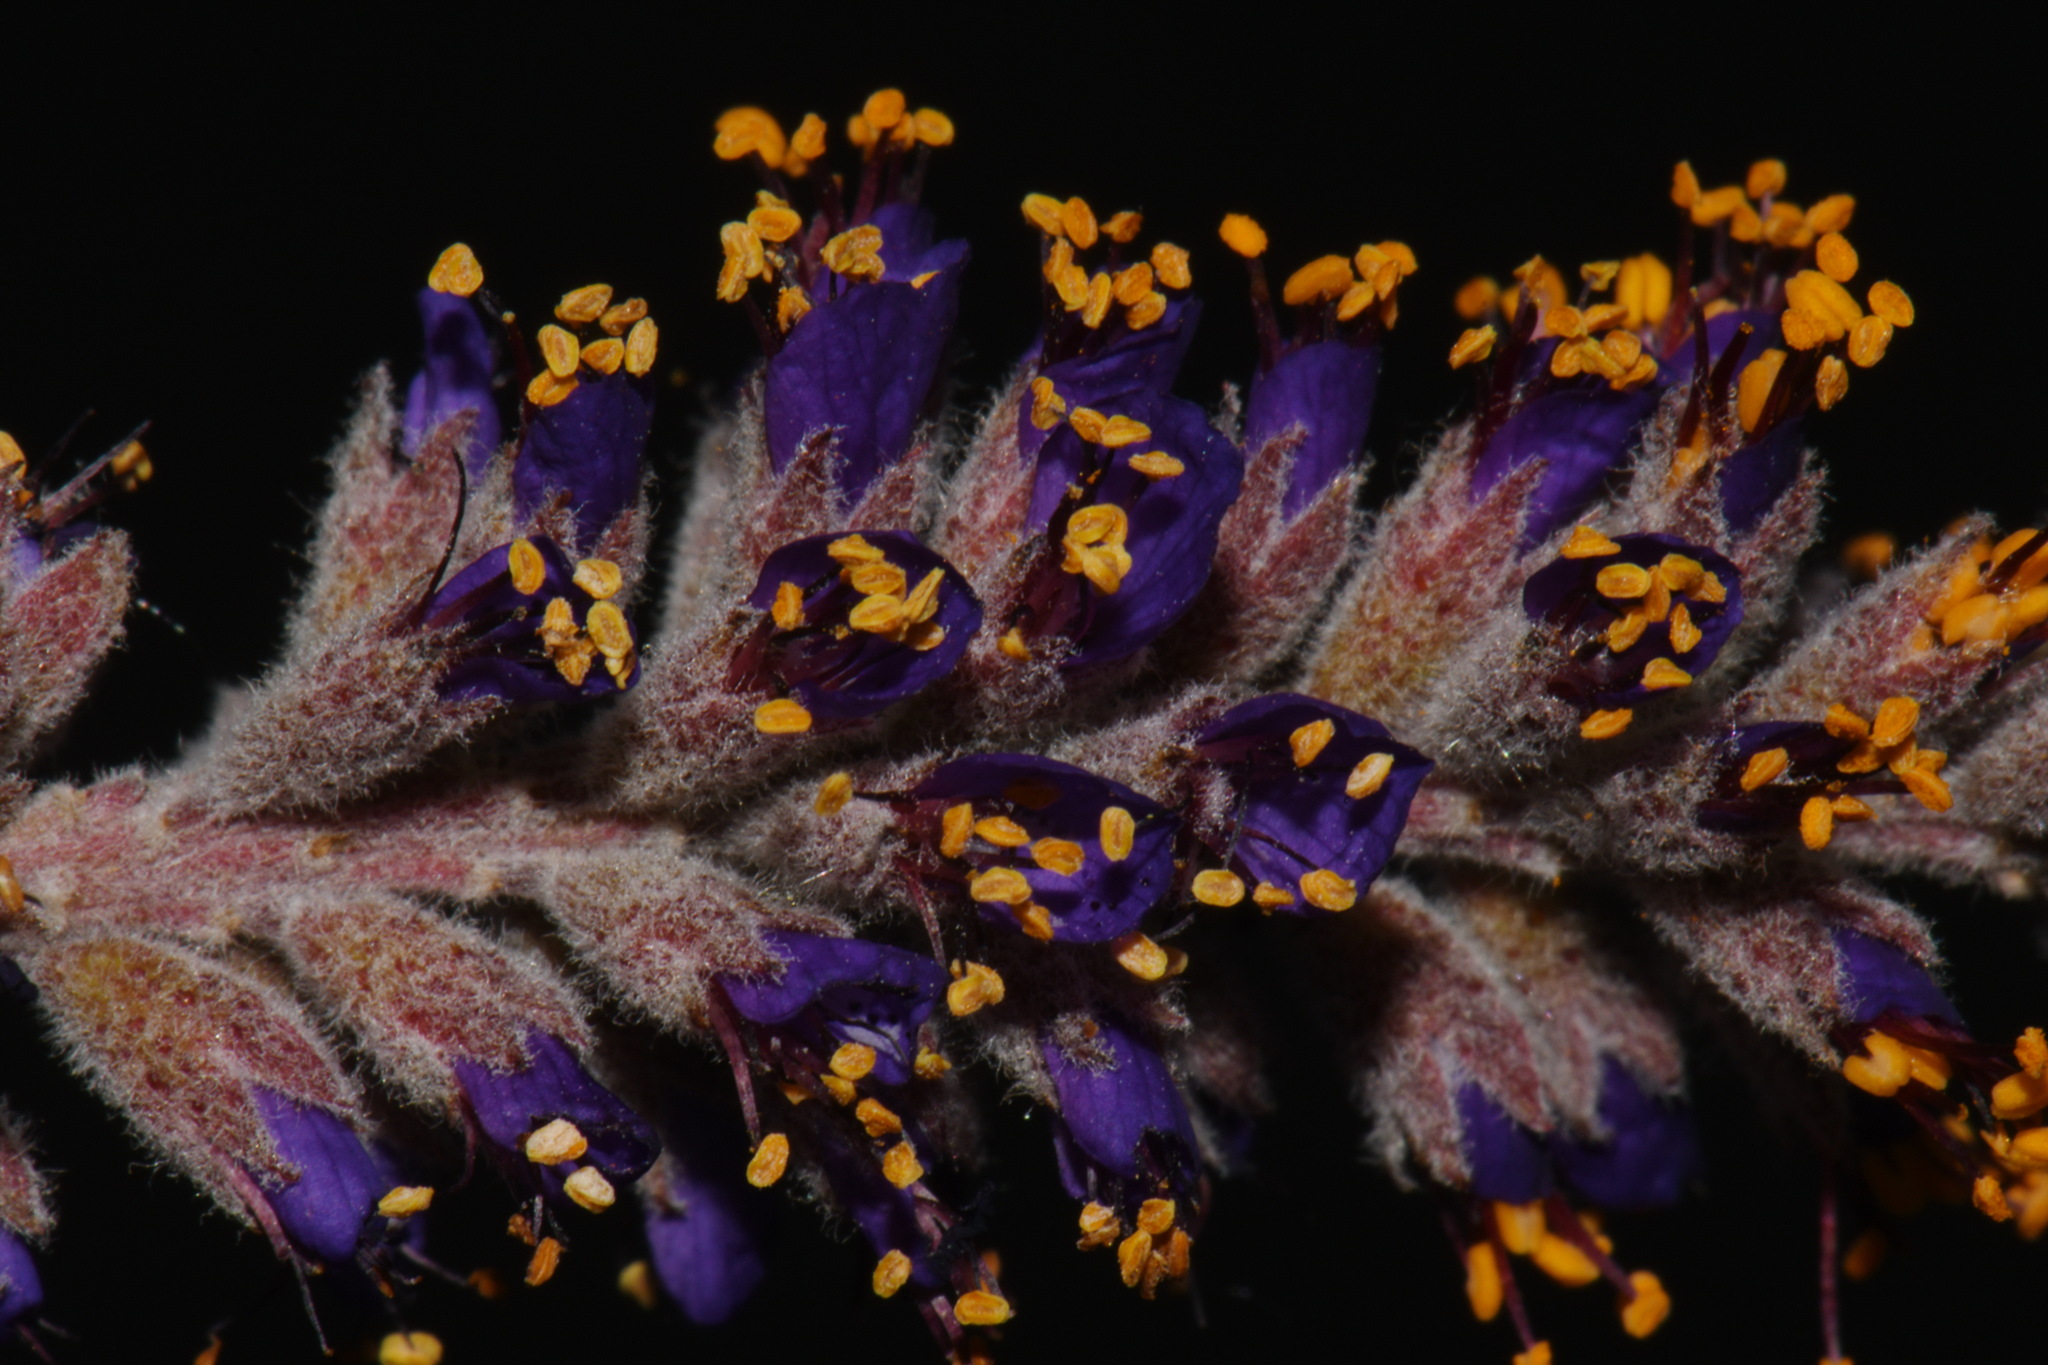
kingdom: Plantae
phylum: Tracheophyta
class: Magnoliopsida
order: Fabales
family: Fabaceae
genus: Amorpha
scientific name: Amorpha canescens
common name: Leadplant
